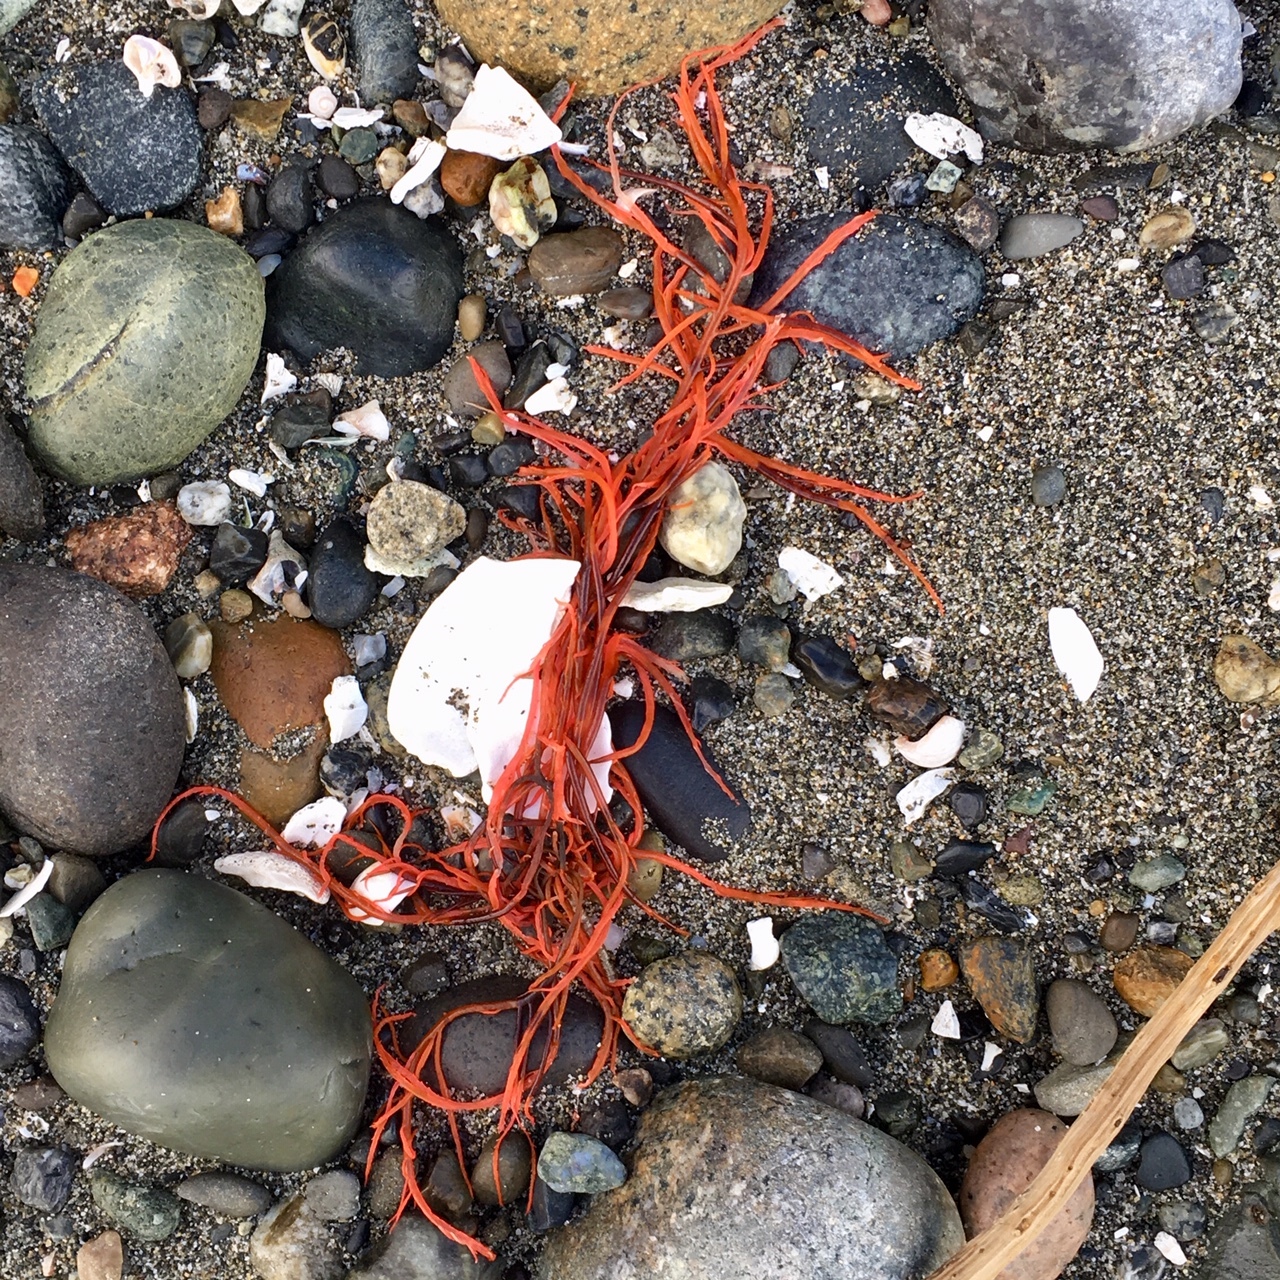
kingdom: Plantae
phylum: Rhodophyta
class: Florideophyceae
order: Gigartinales
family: Solieriaceae
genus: Sarcodiotheca
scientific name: Sarcodiotheca gaudichaudii
